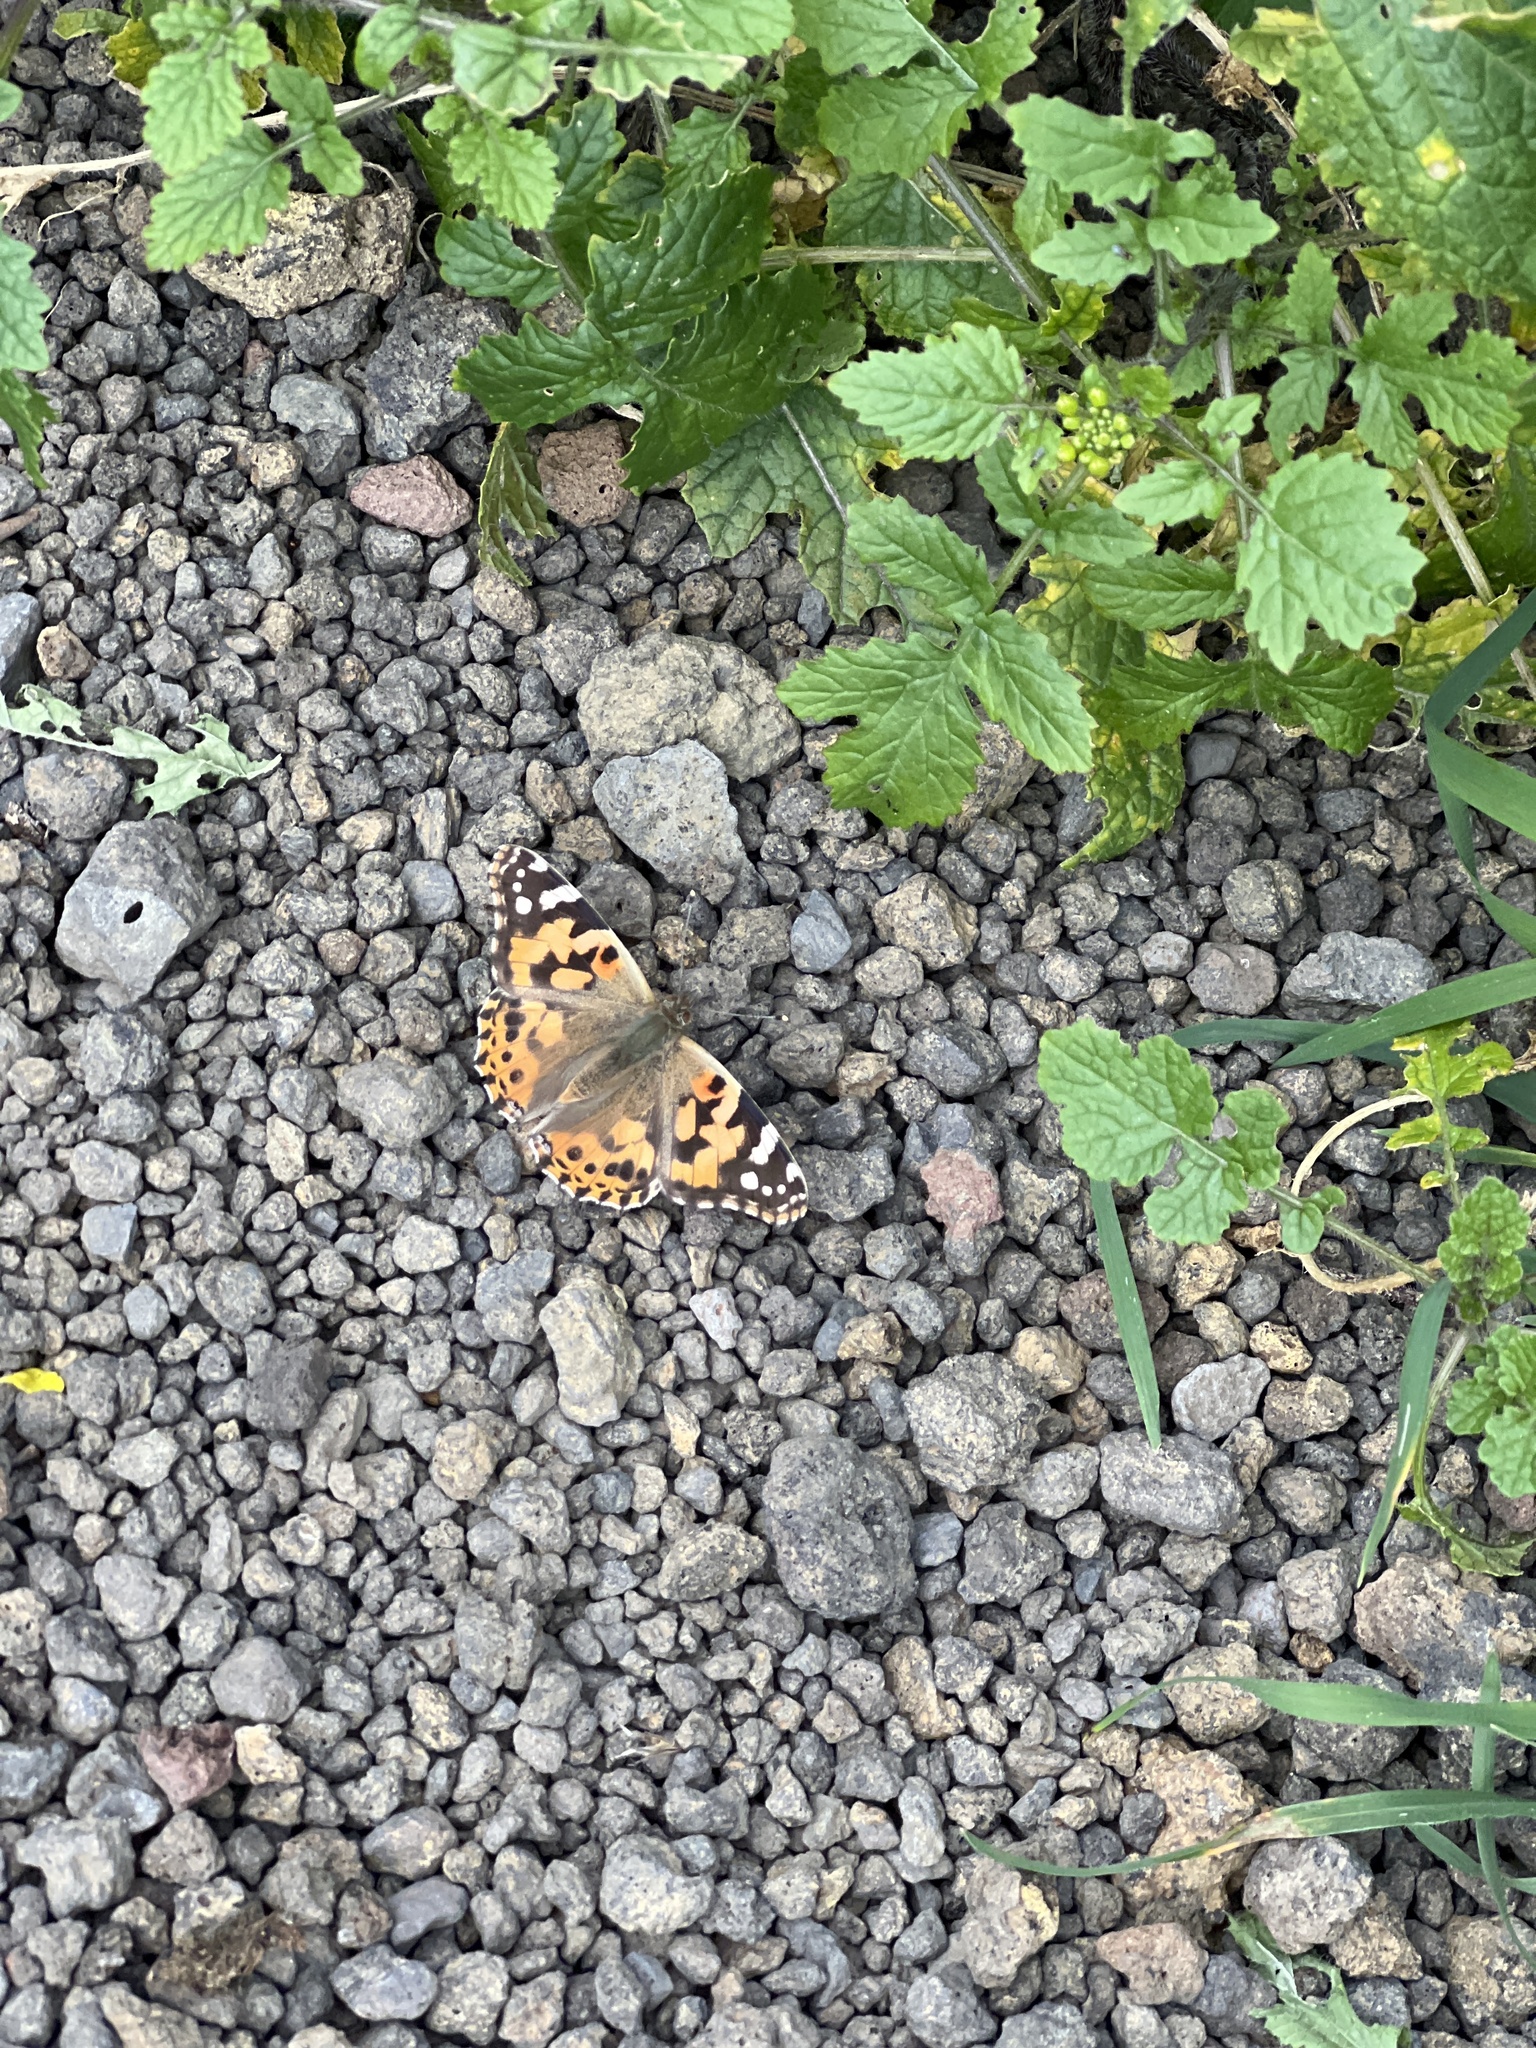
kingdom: Animalia
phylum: Arthropoda
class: Insecta
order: Lepidoptera
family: Nymphalidae
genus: Vanessa
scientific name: Vanessa cardui
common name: Painted lady
